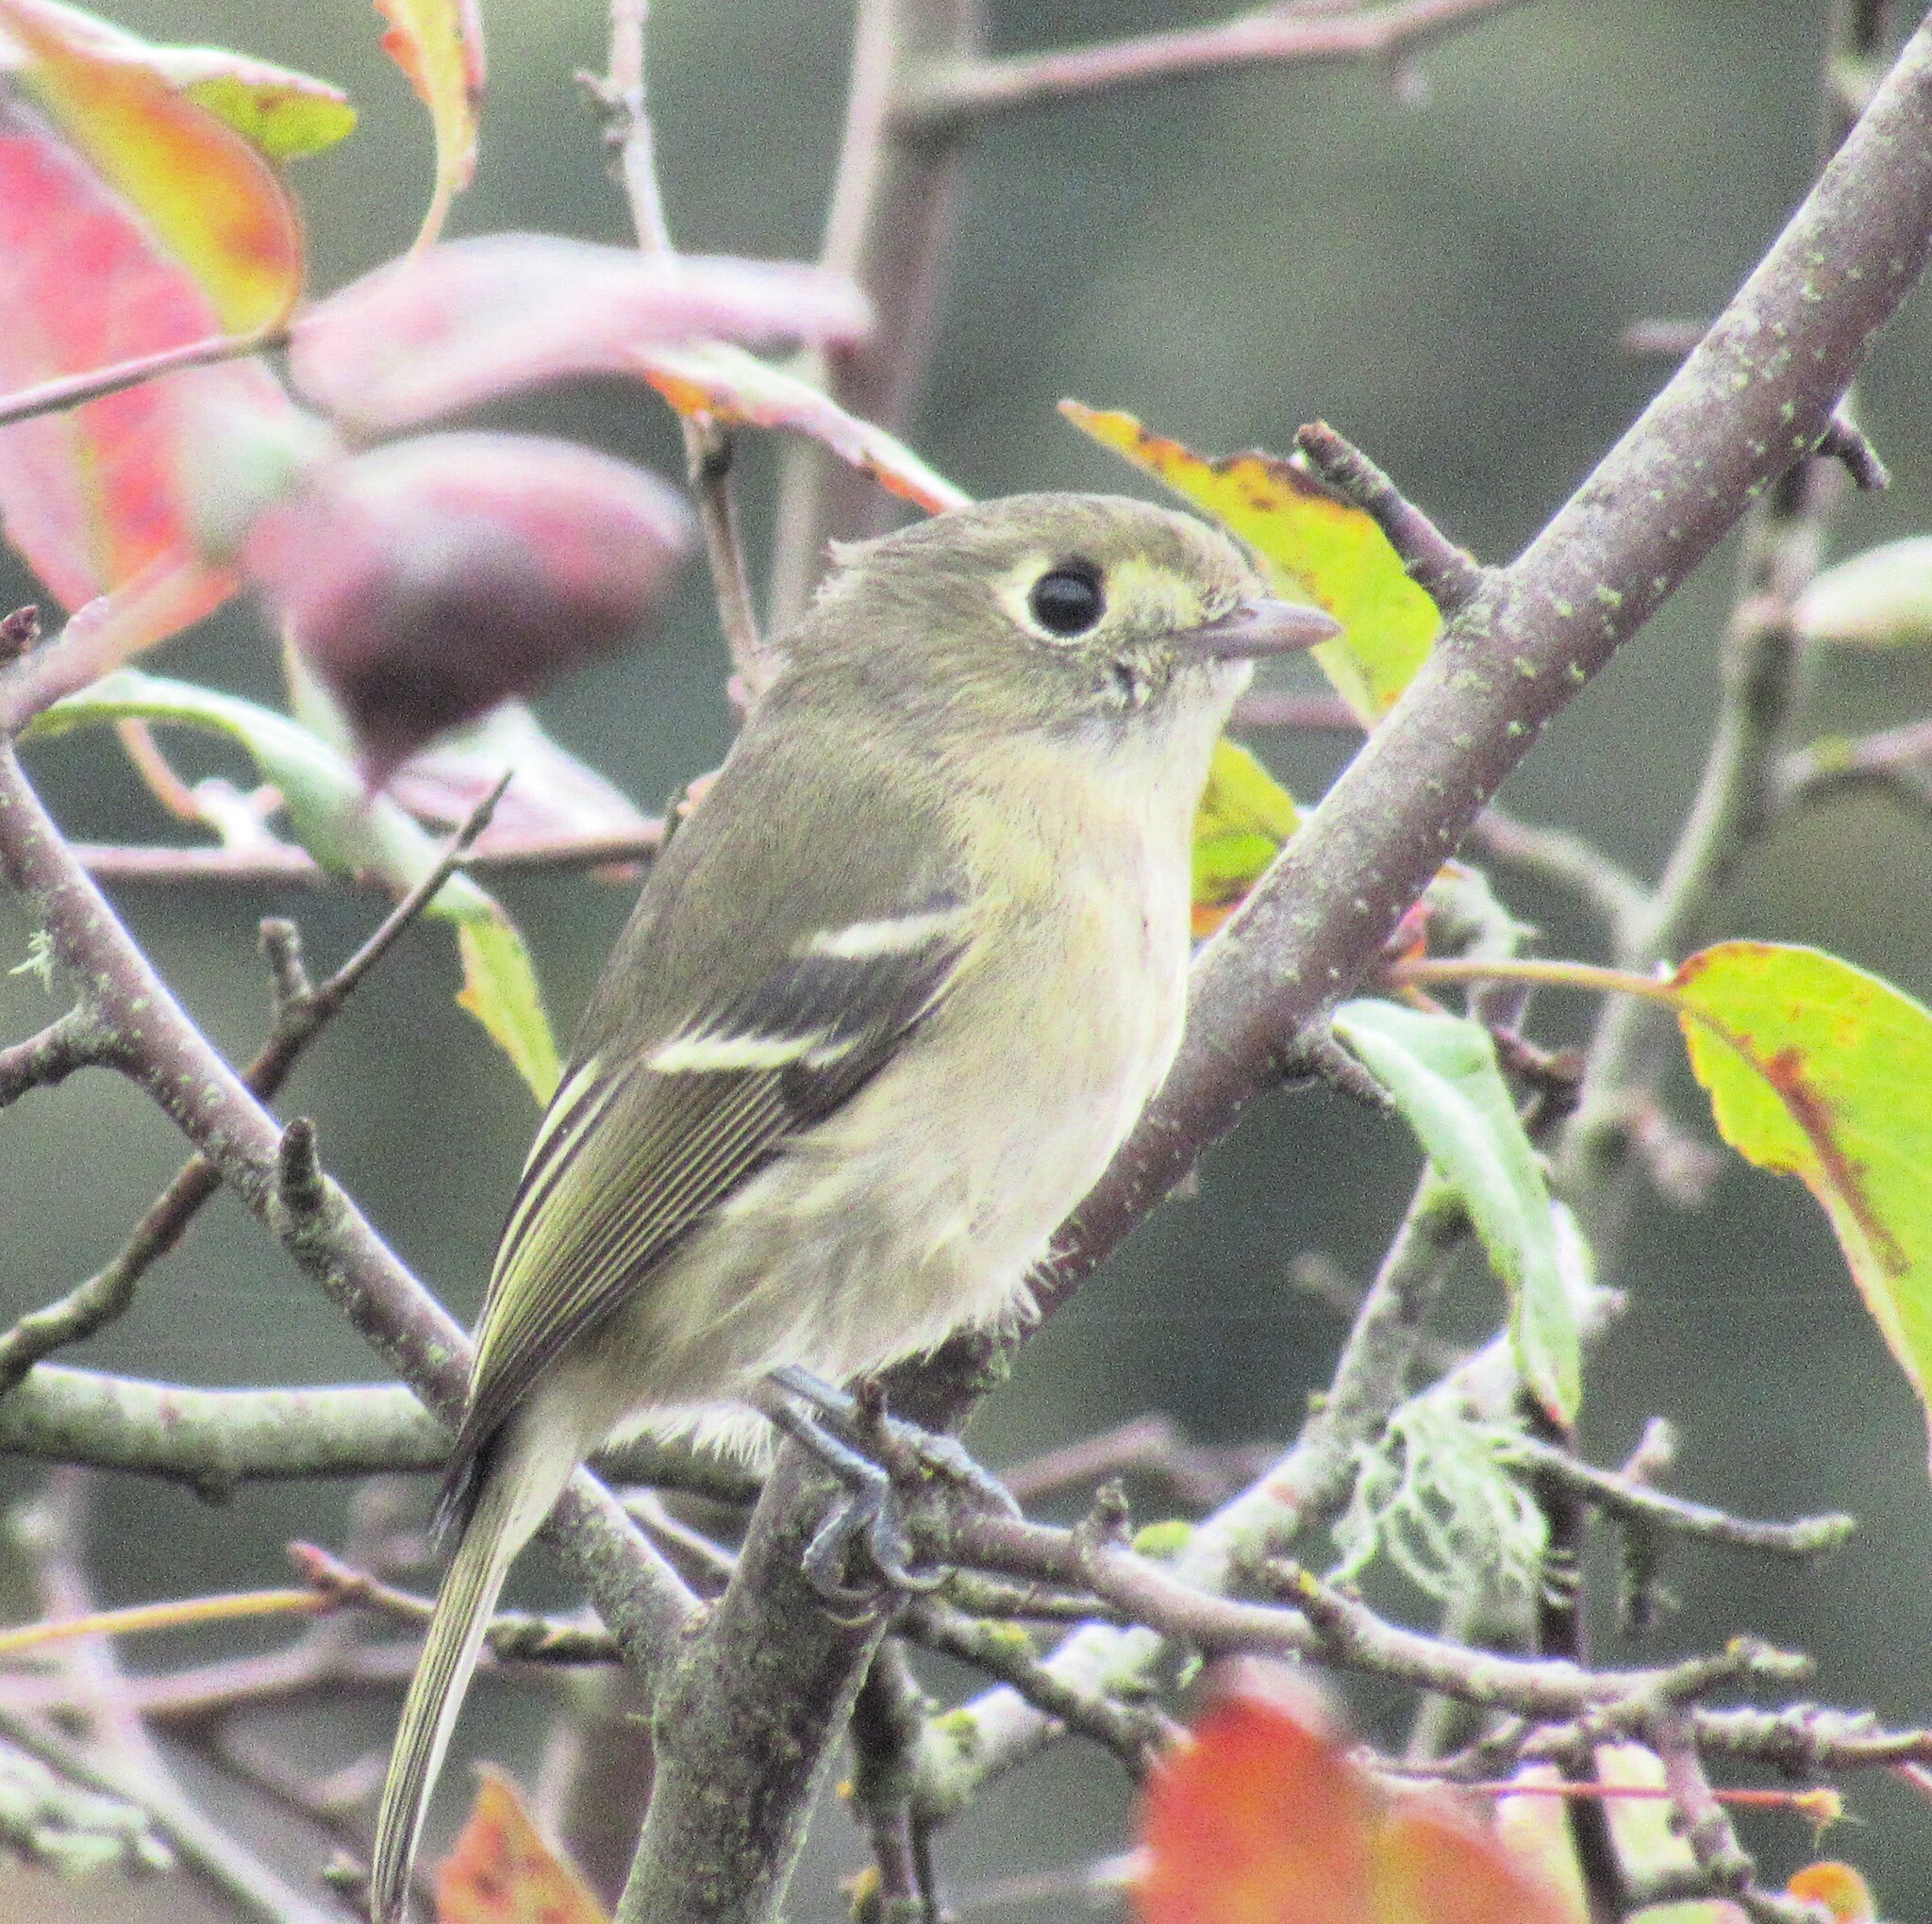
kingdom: Animalia
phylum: Chordata
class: Aves
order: Passeriformes
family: Vireonidae
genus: Vireo
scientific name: Vireo huttoni
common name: Hutton's vireo
